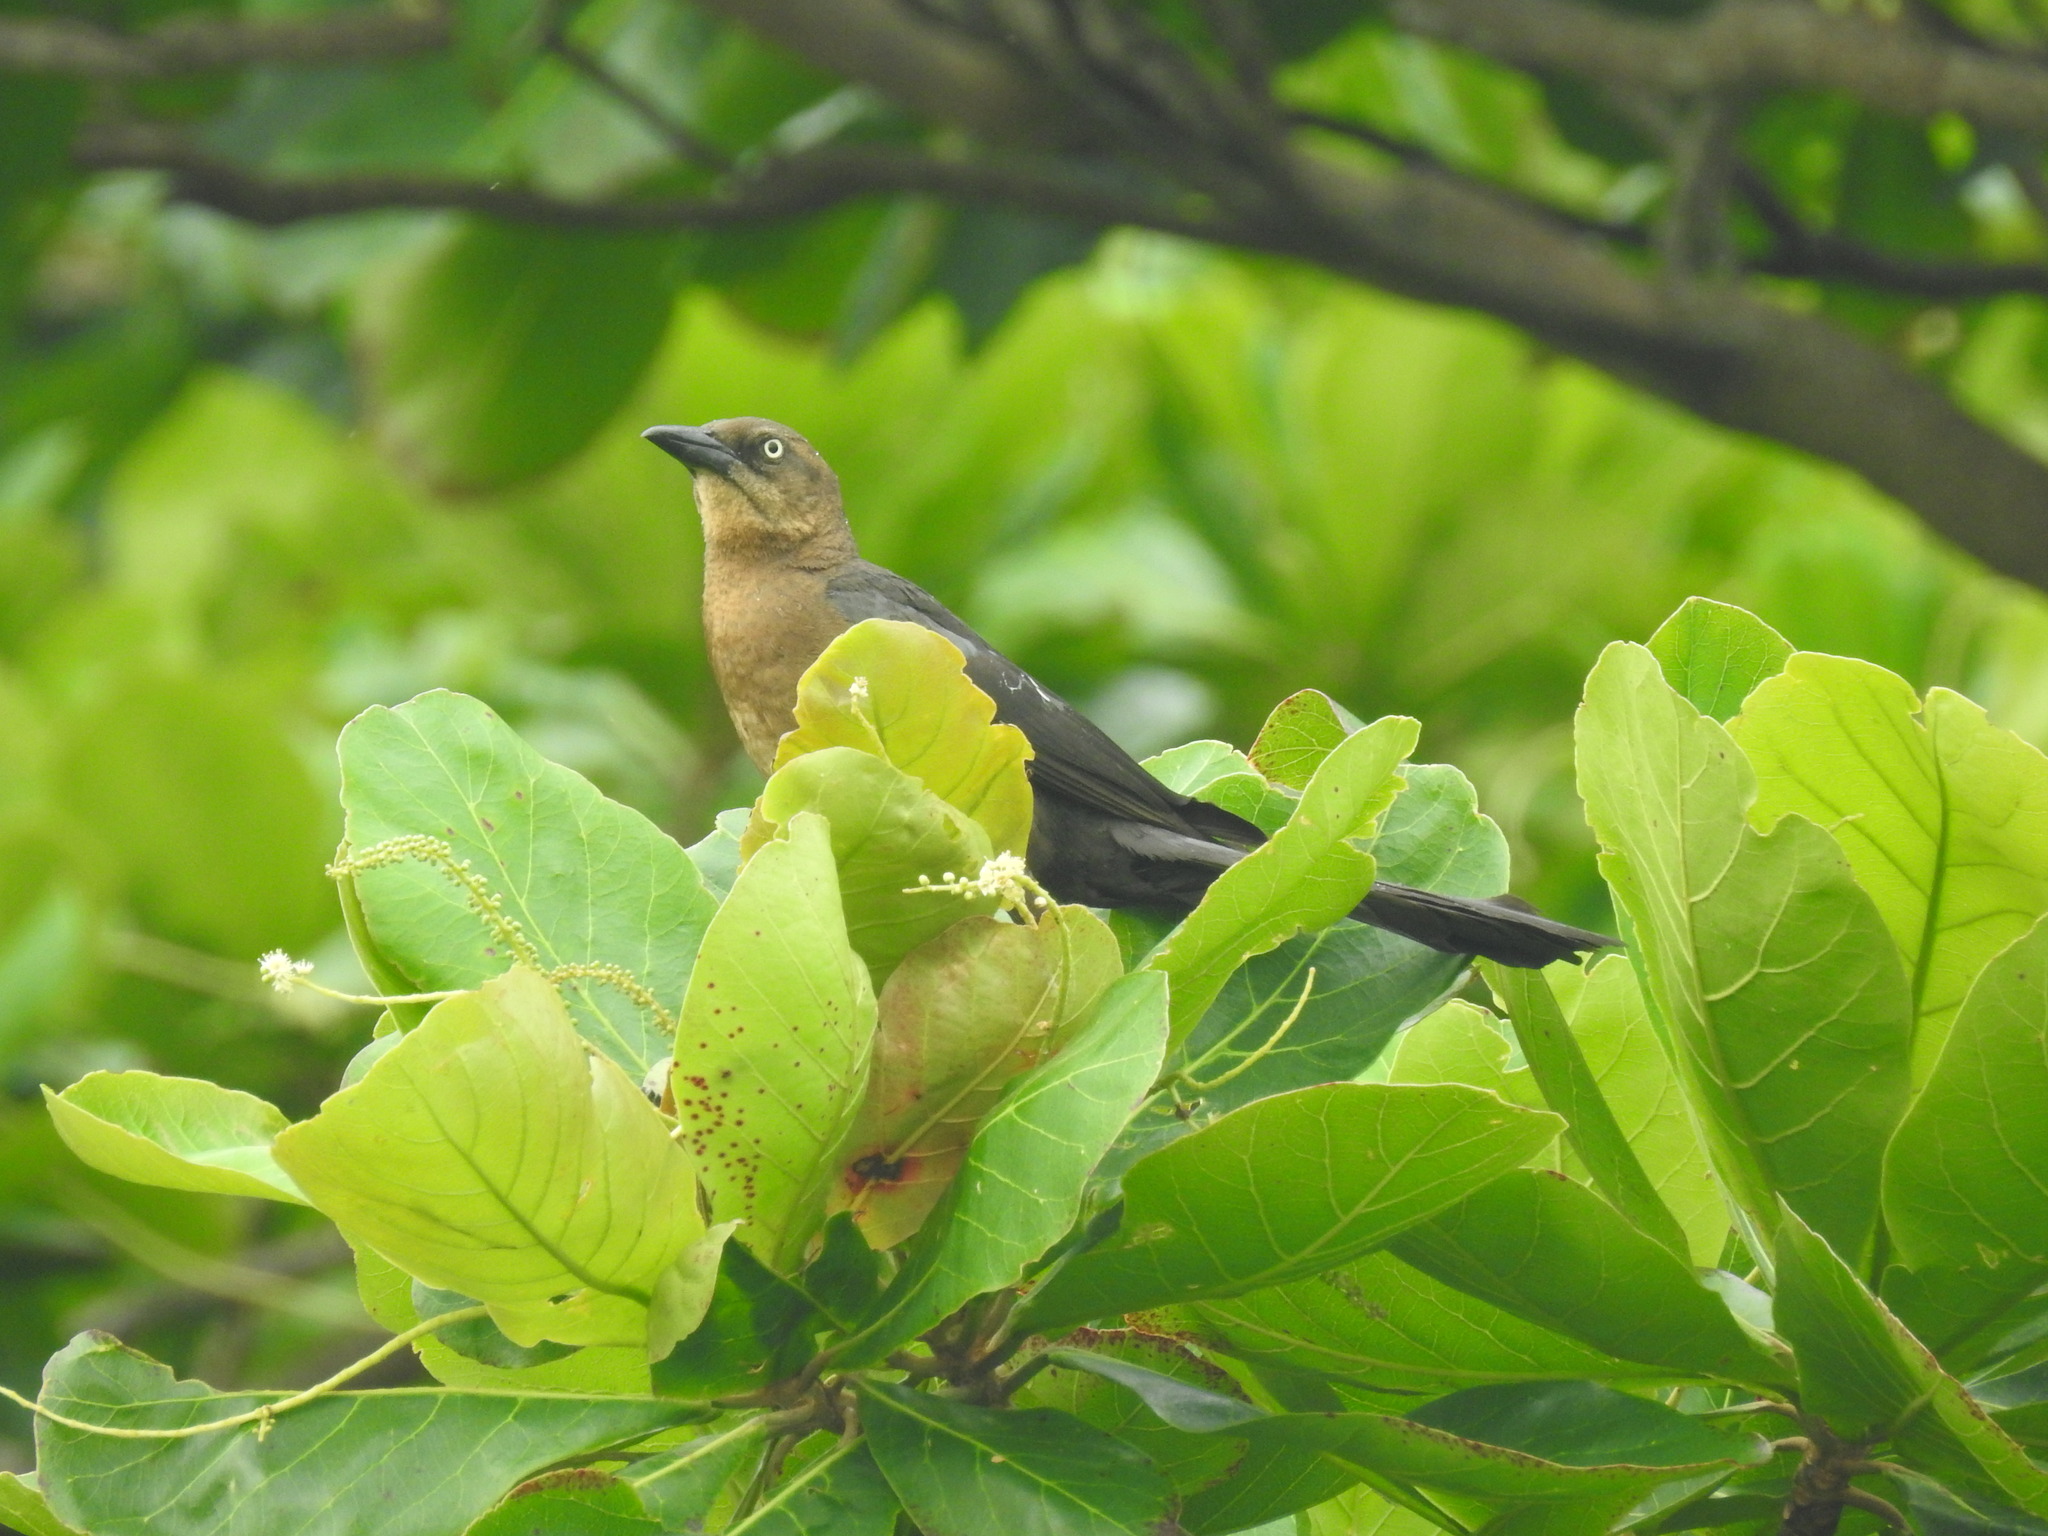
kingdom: Animalia
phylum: Chordata
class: Aves
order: Passeriformes
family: Icteridae
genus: Quiscalus
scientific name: Quiscalus mexicanus
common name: Great-tailed grackle
